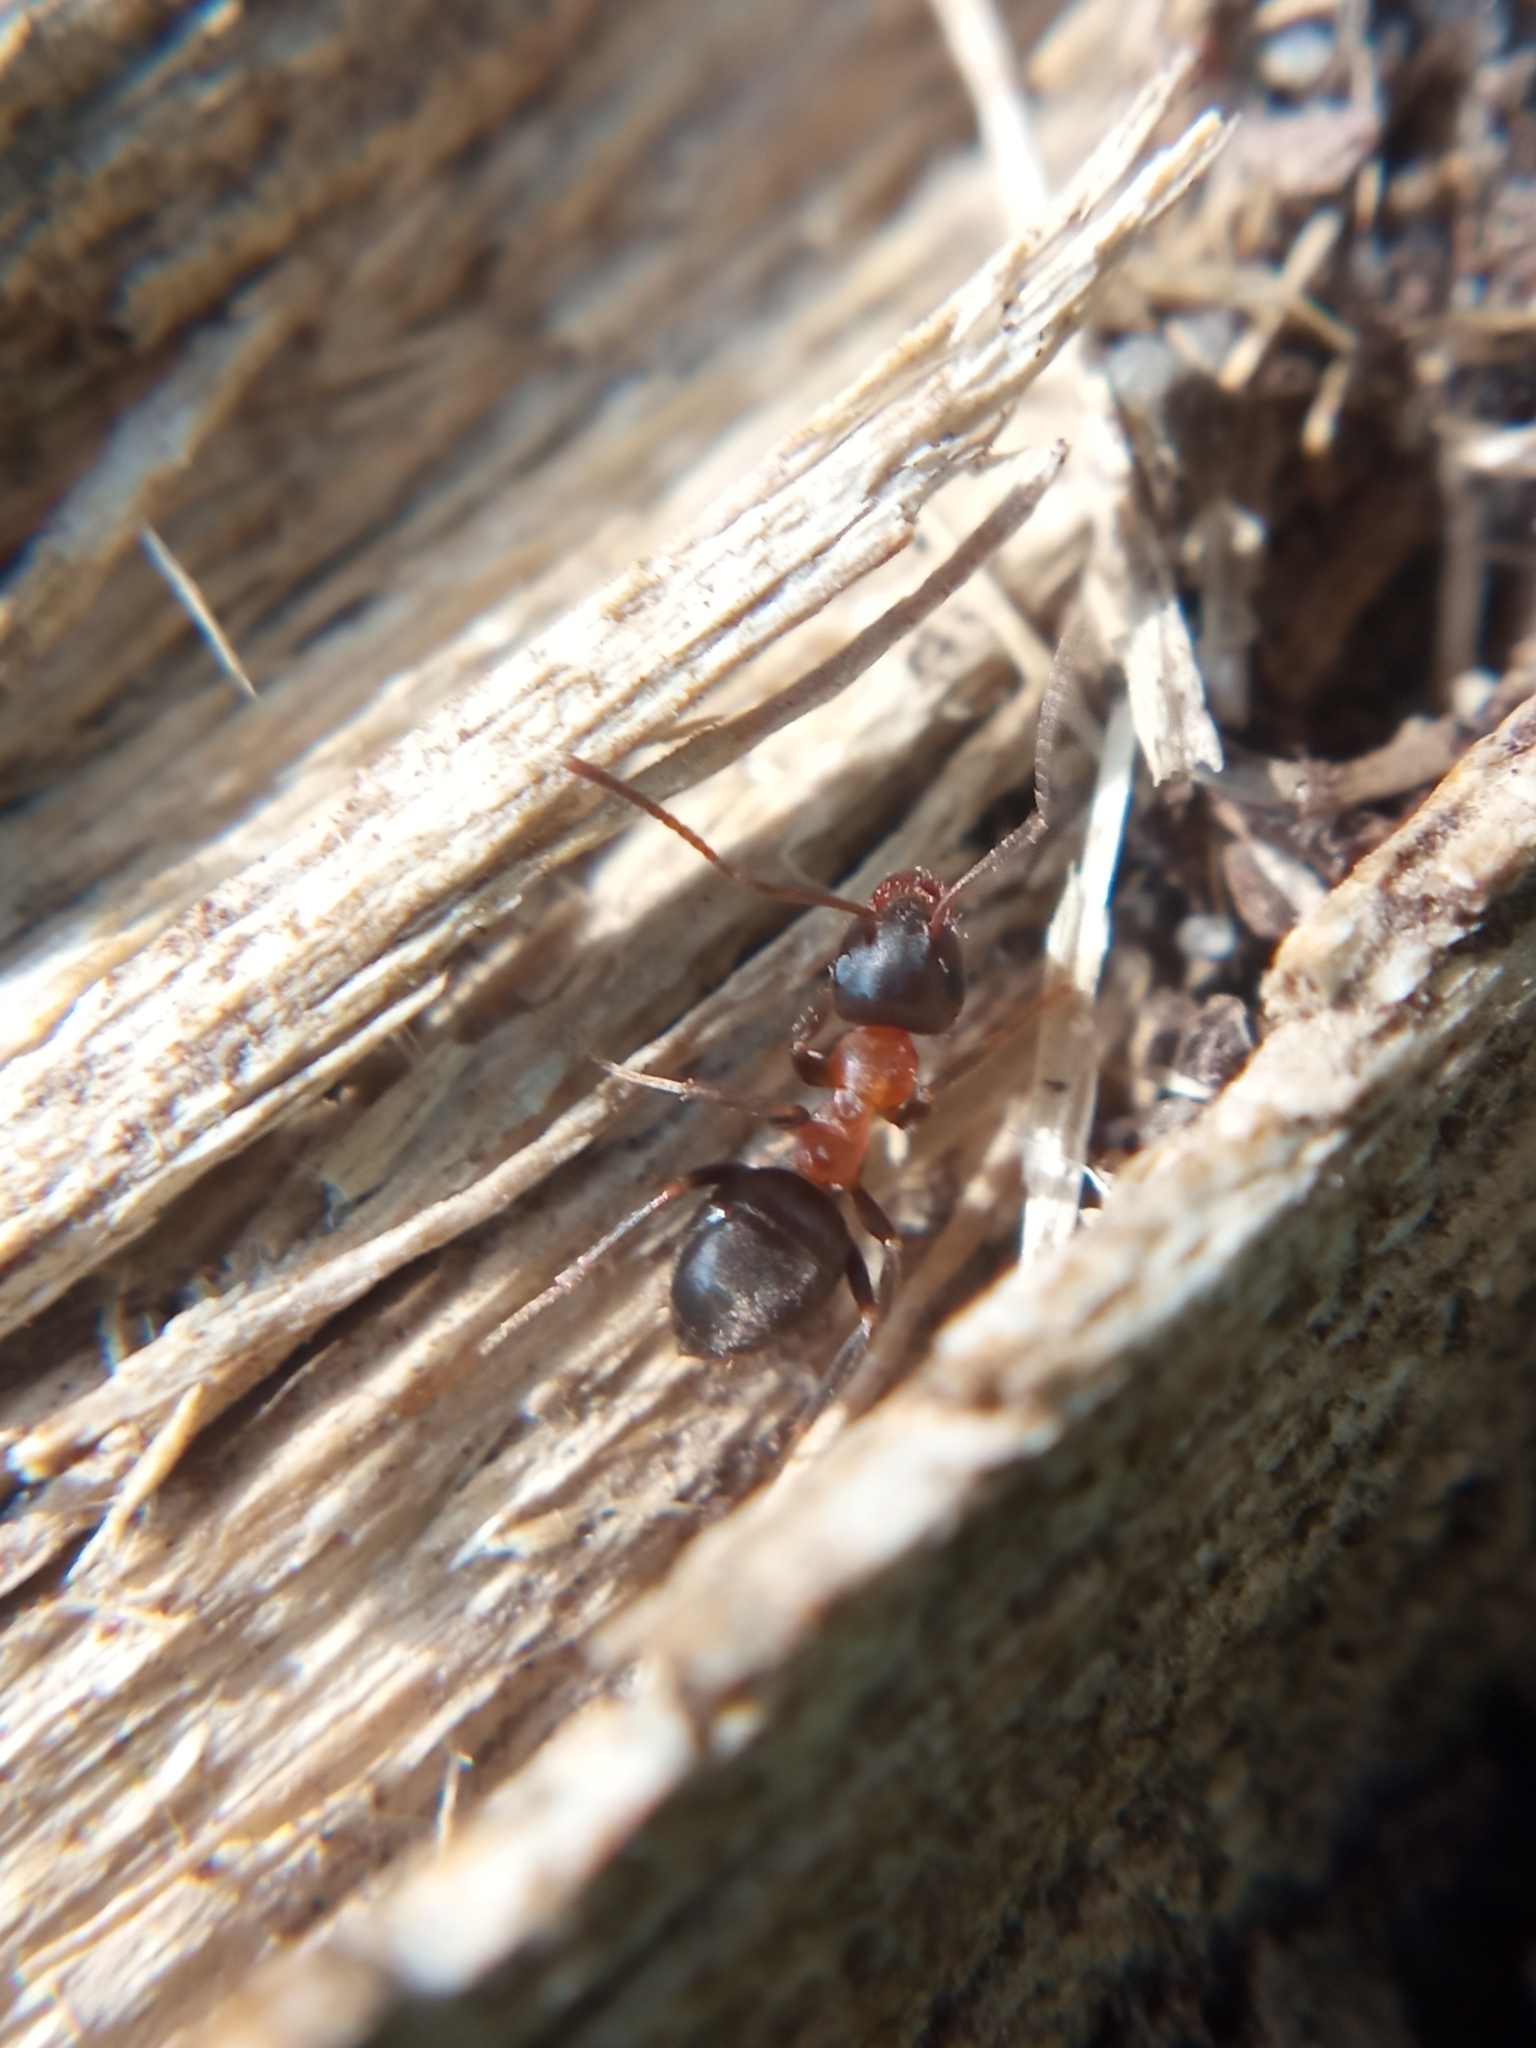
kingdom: Animalia
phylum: Arthropoda
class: Insecta
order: Hymenoptera
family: Formicidae
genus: Lasius
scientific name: Lasius emarginatus
